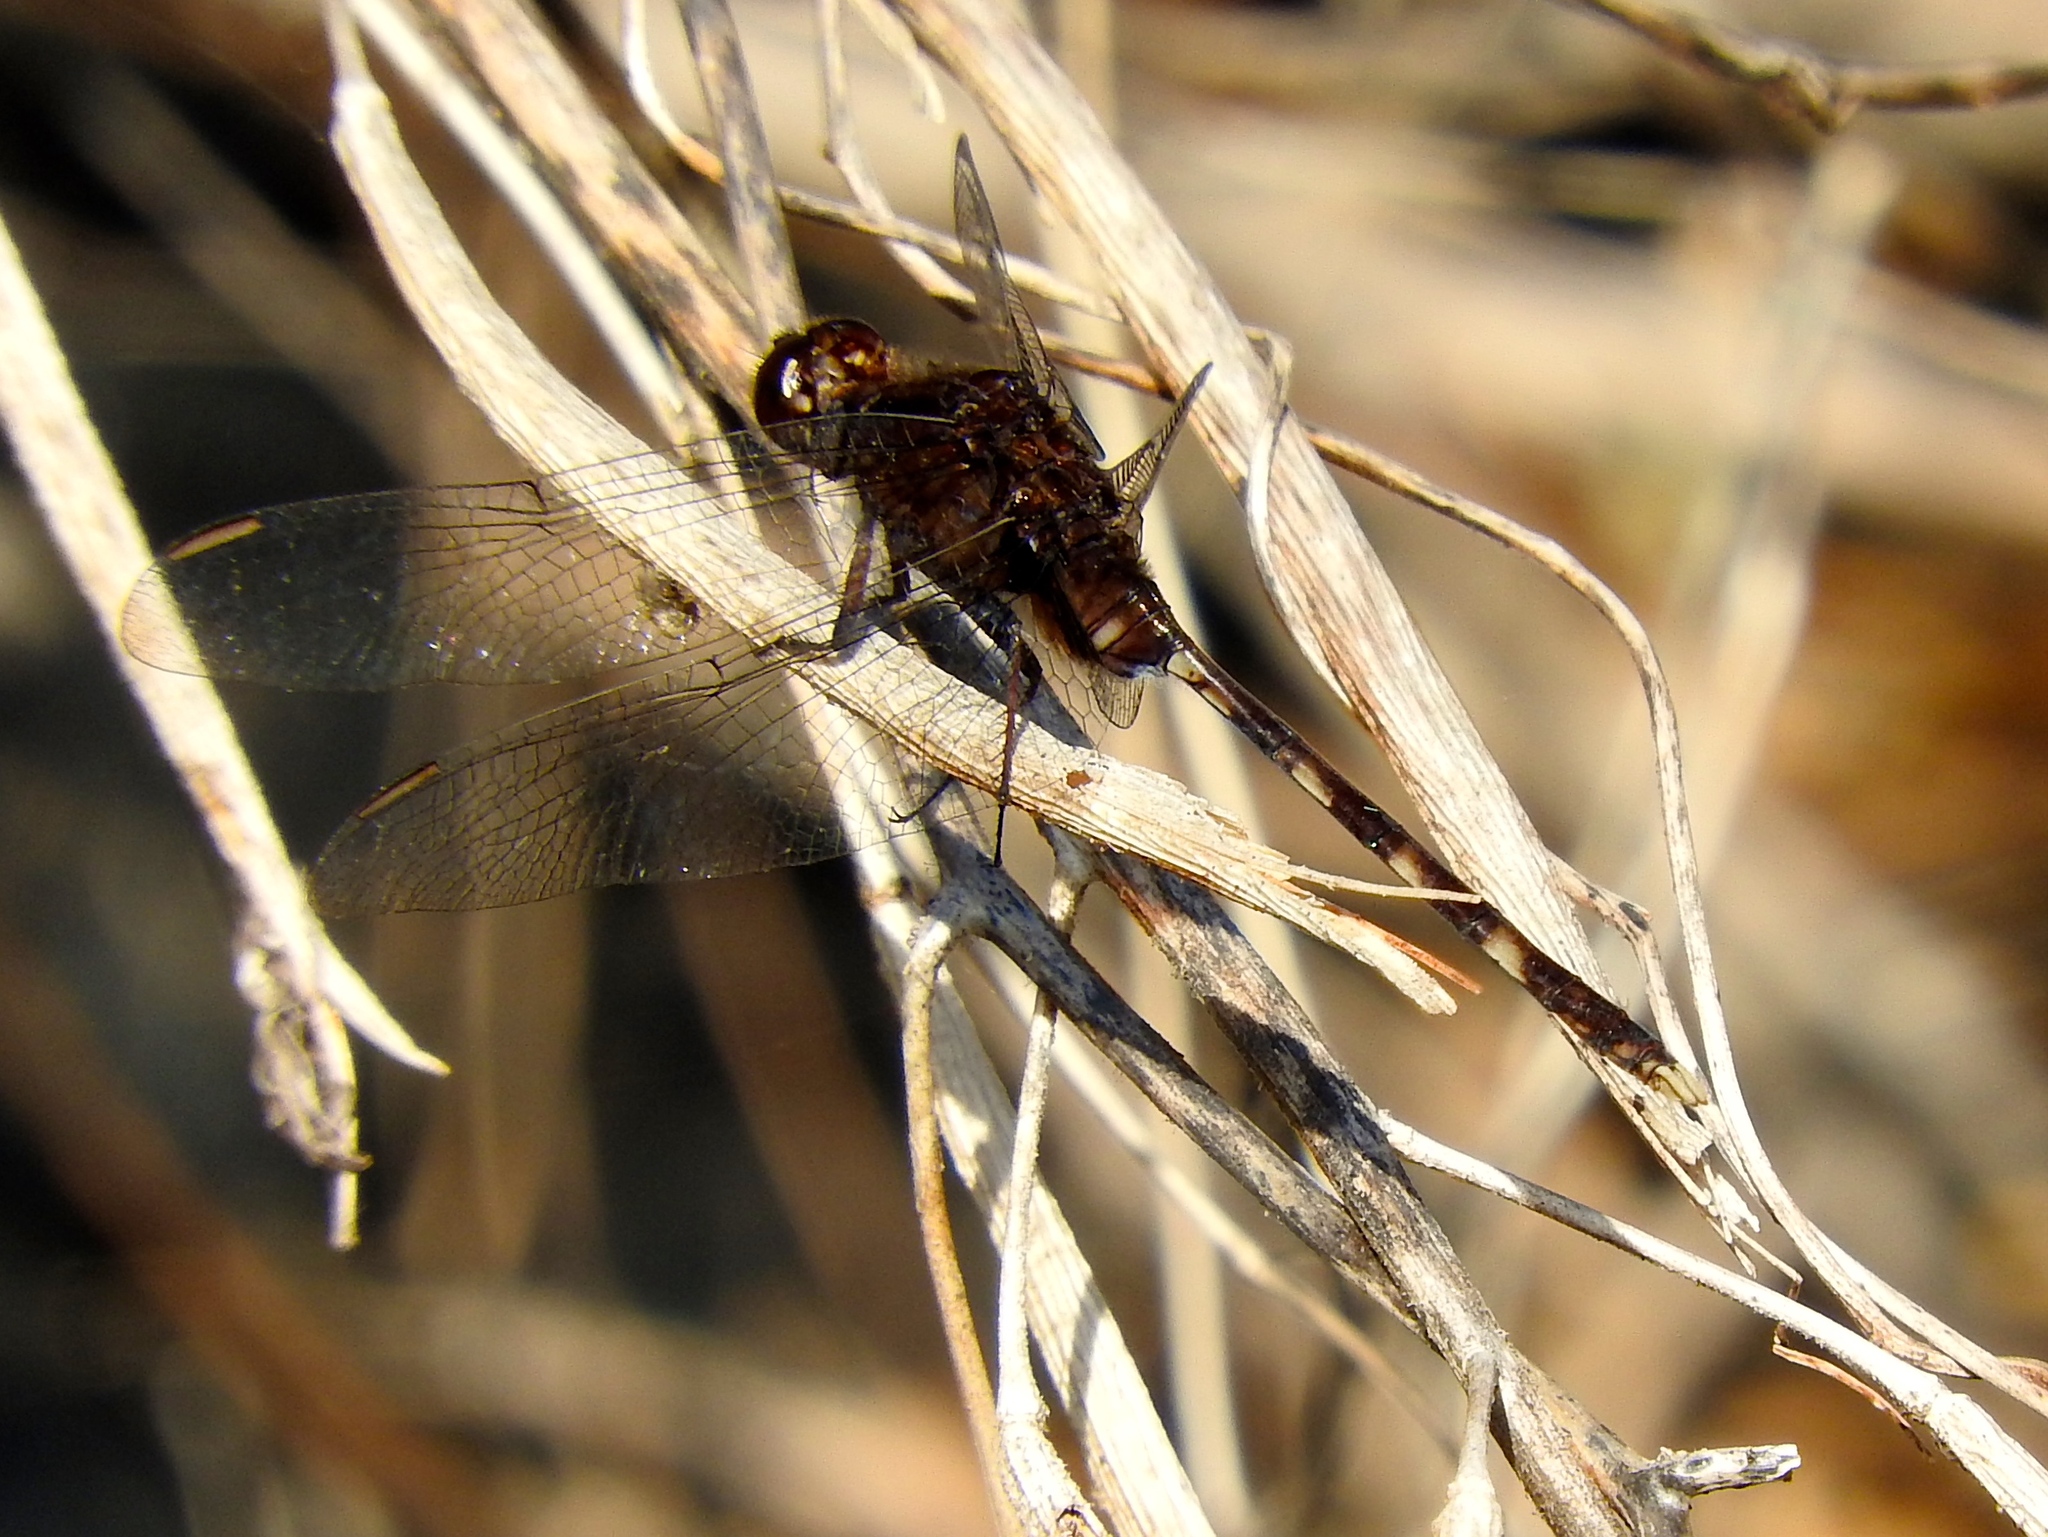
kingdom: Animalia
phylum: Arthropoda
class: Insecta
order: Odonata
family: Libellulidae
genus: Erythemis
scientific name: Erythemis plebeja
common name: Pin-tailed pondhawk
